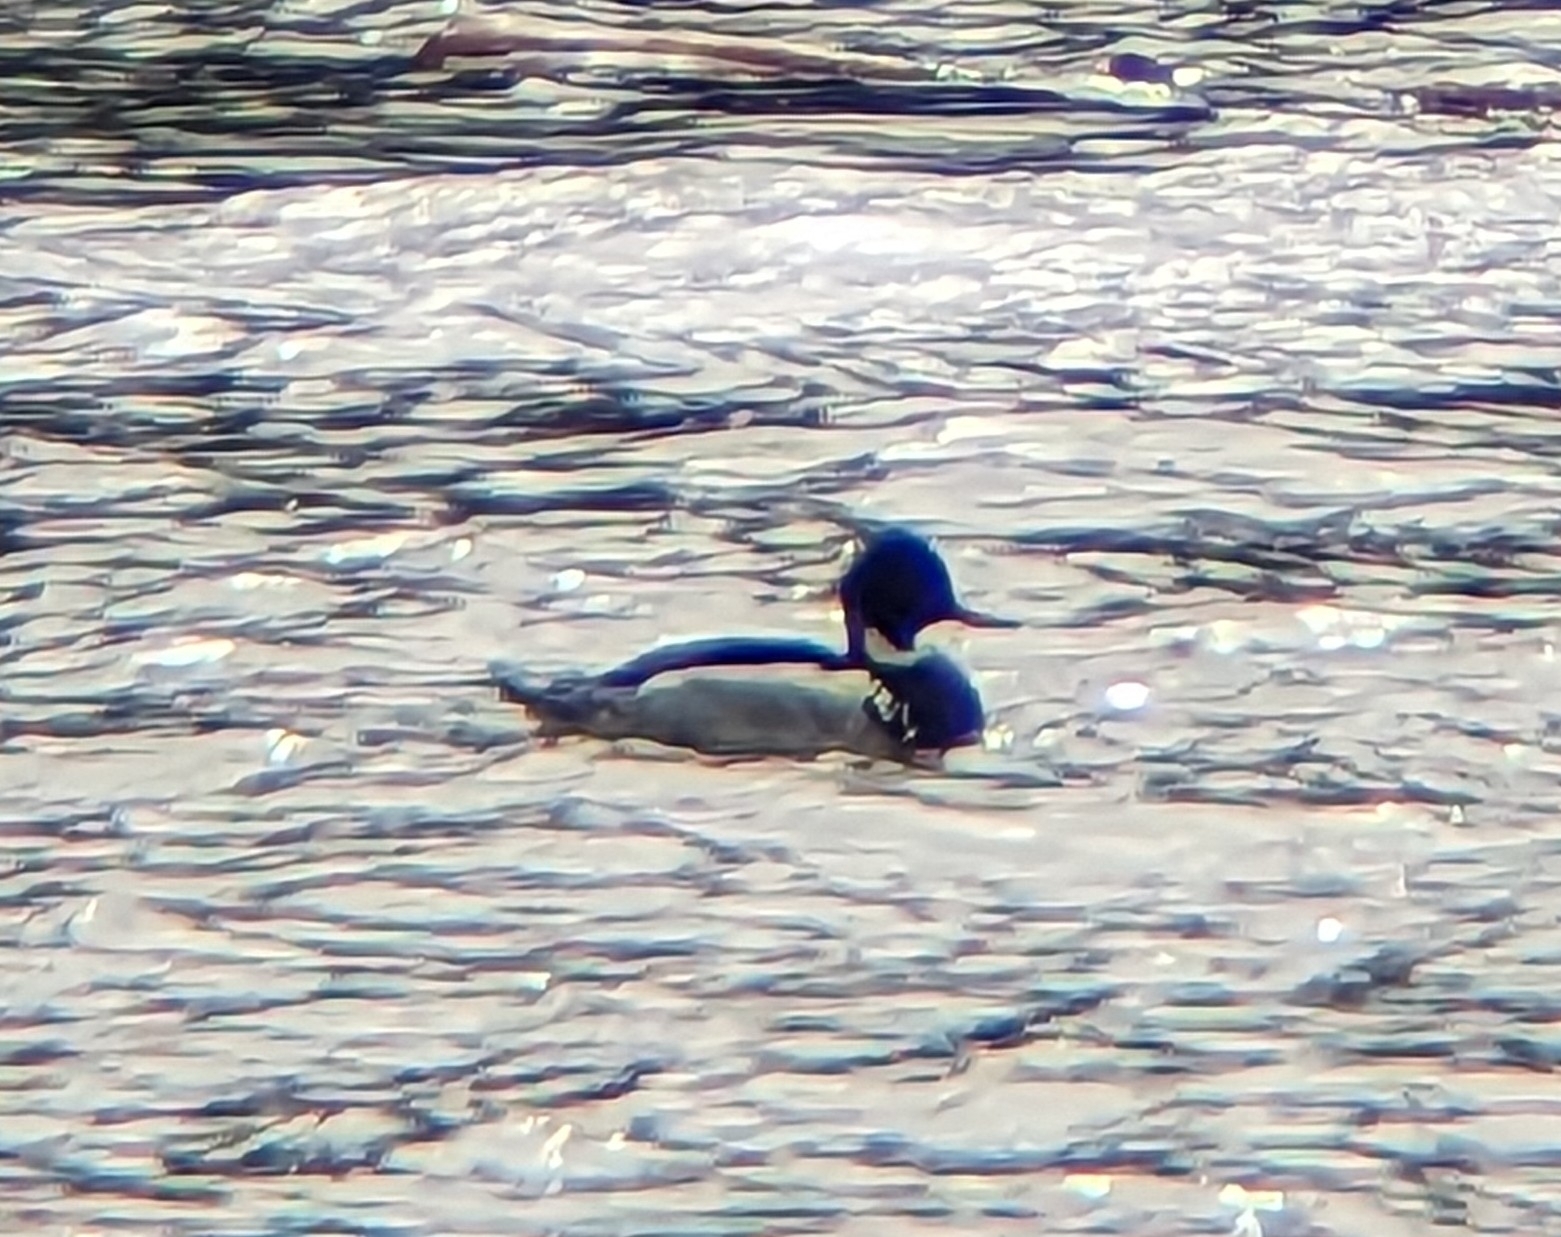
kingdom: Animalia
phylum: Chordata
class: Aves
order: Anseriformes
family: Anatidae
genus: Mergus
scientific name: Mergus serrator
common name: Red-breasted merganser
